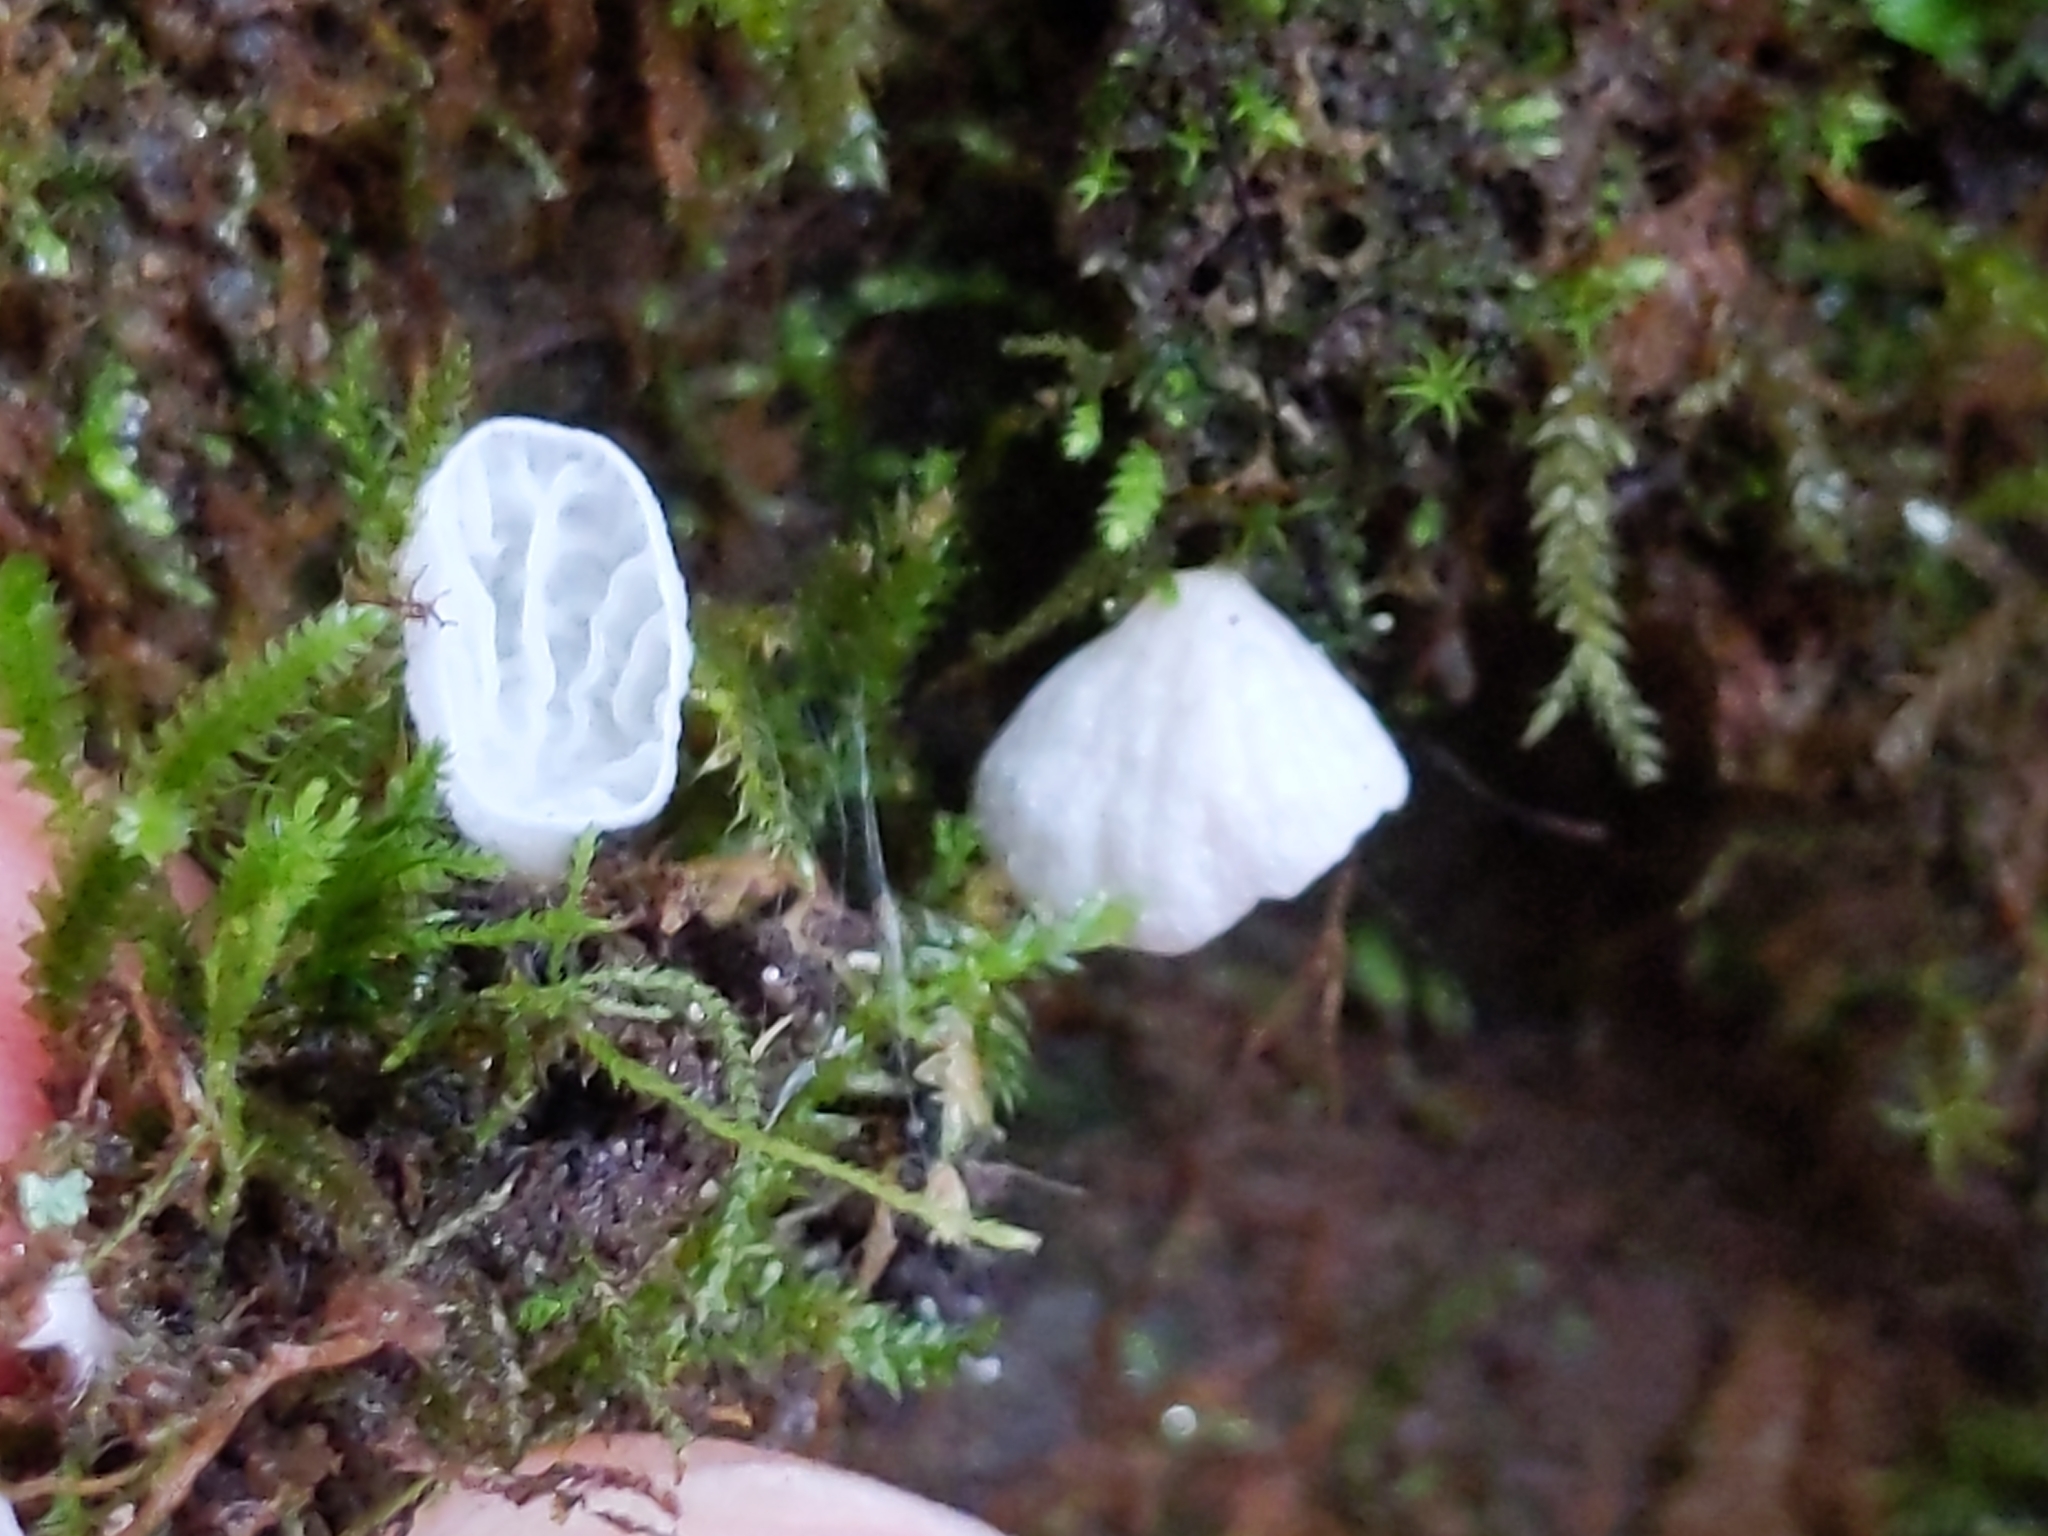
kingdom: Fungi
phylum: Basidiomycota
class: Agaricomycetes
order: Agaricales
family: Tricholomataceae
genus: Rimbachia
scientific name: Rimbachia bryophila
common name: Veined mossear
